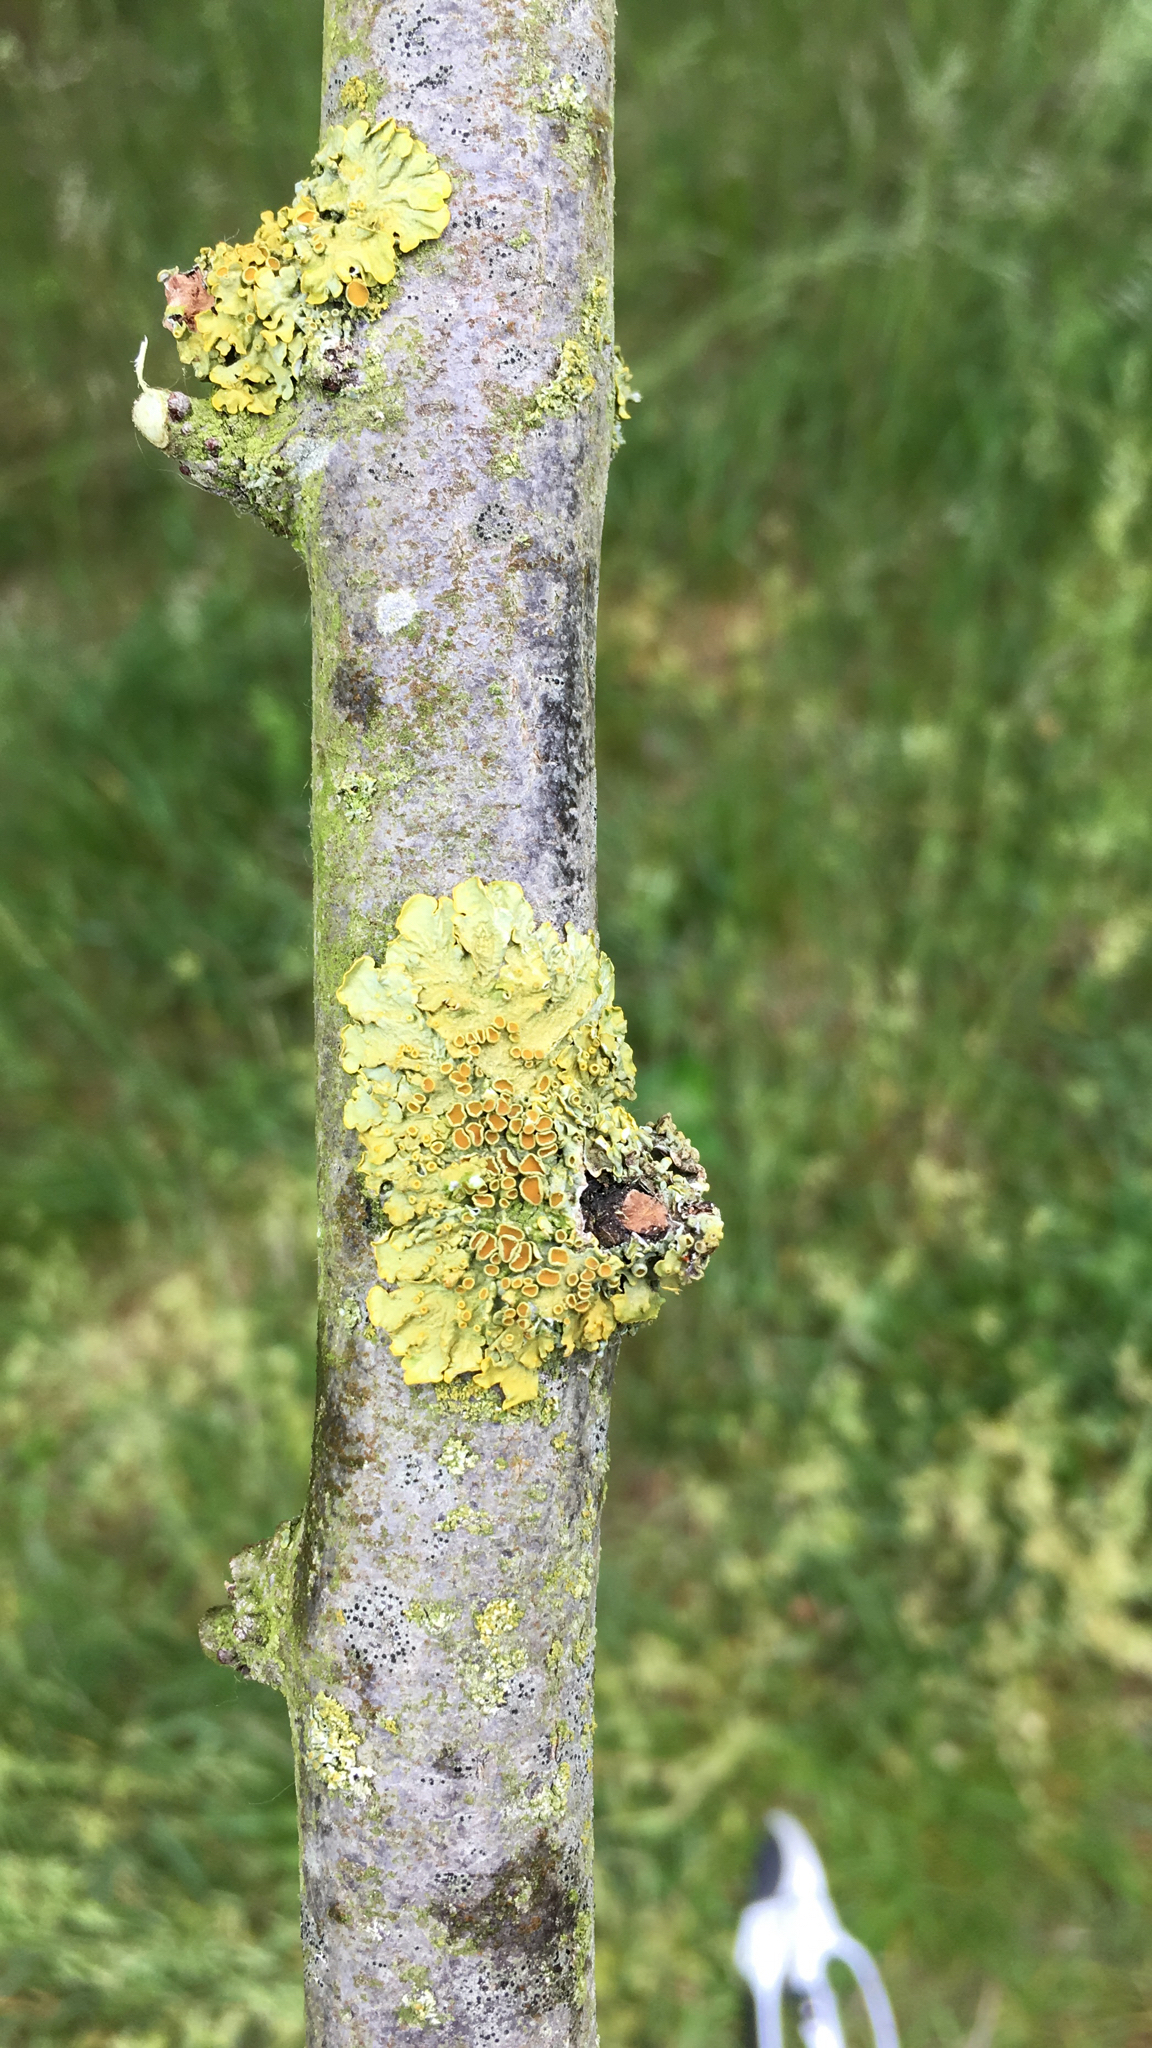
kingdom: Fungi
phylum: Ascomycota
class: Lecanoromycetes
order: Teloschistales
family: Teloschistaceae
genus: Xanthoria
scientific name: Xanthoria parietina
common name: Common orange lichen
